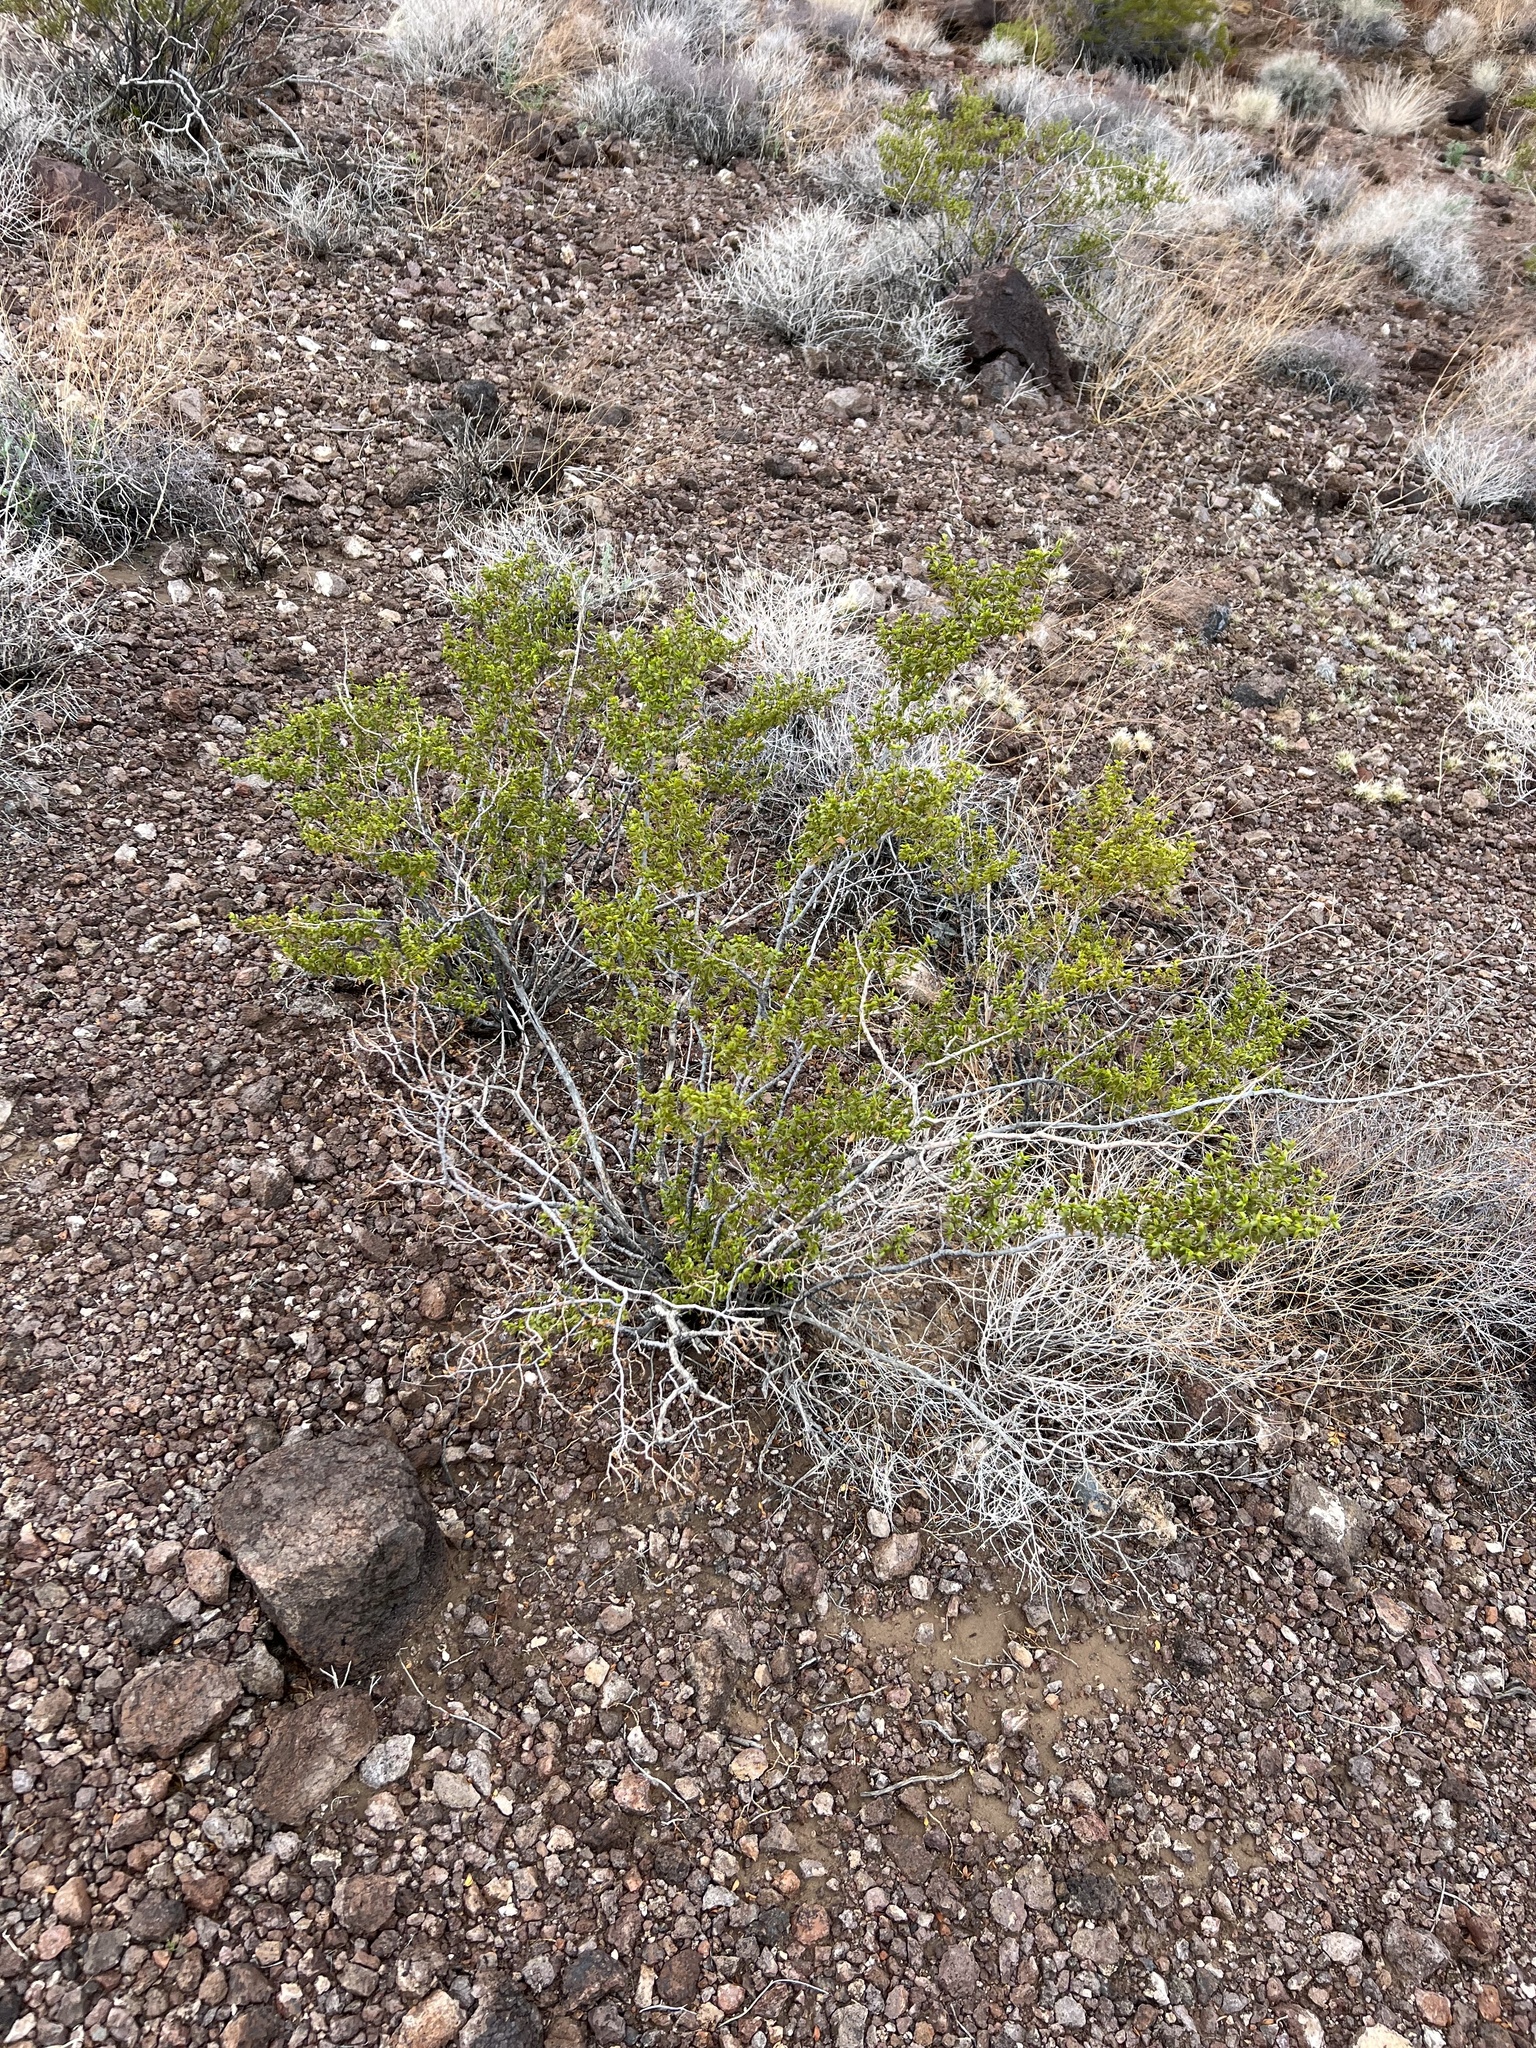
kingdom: Plantae
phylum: Tracheophyta
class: Magnoliopsida
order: Zygophyllales
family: Zygophyllaceae
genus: Larrea
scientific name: Larrea tridentata
